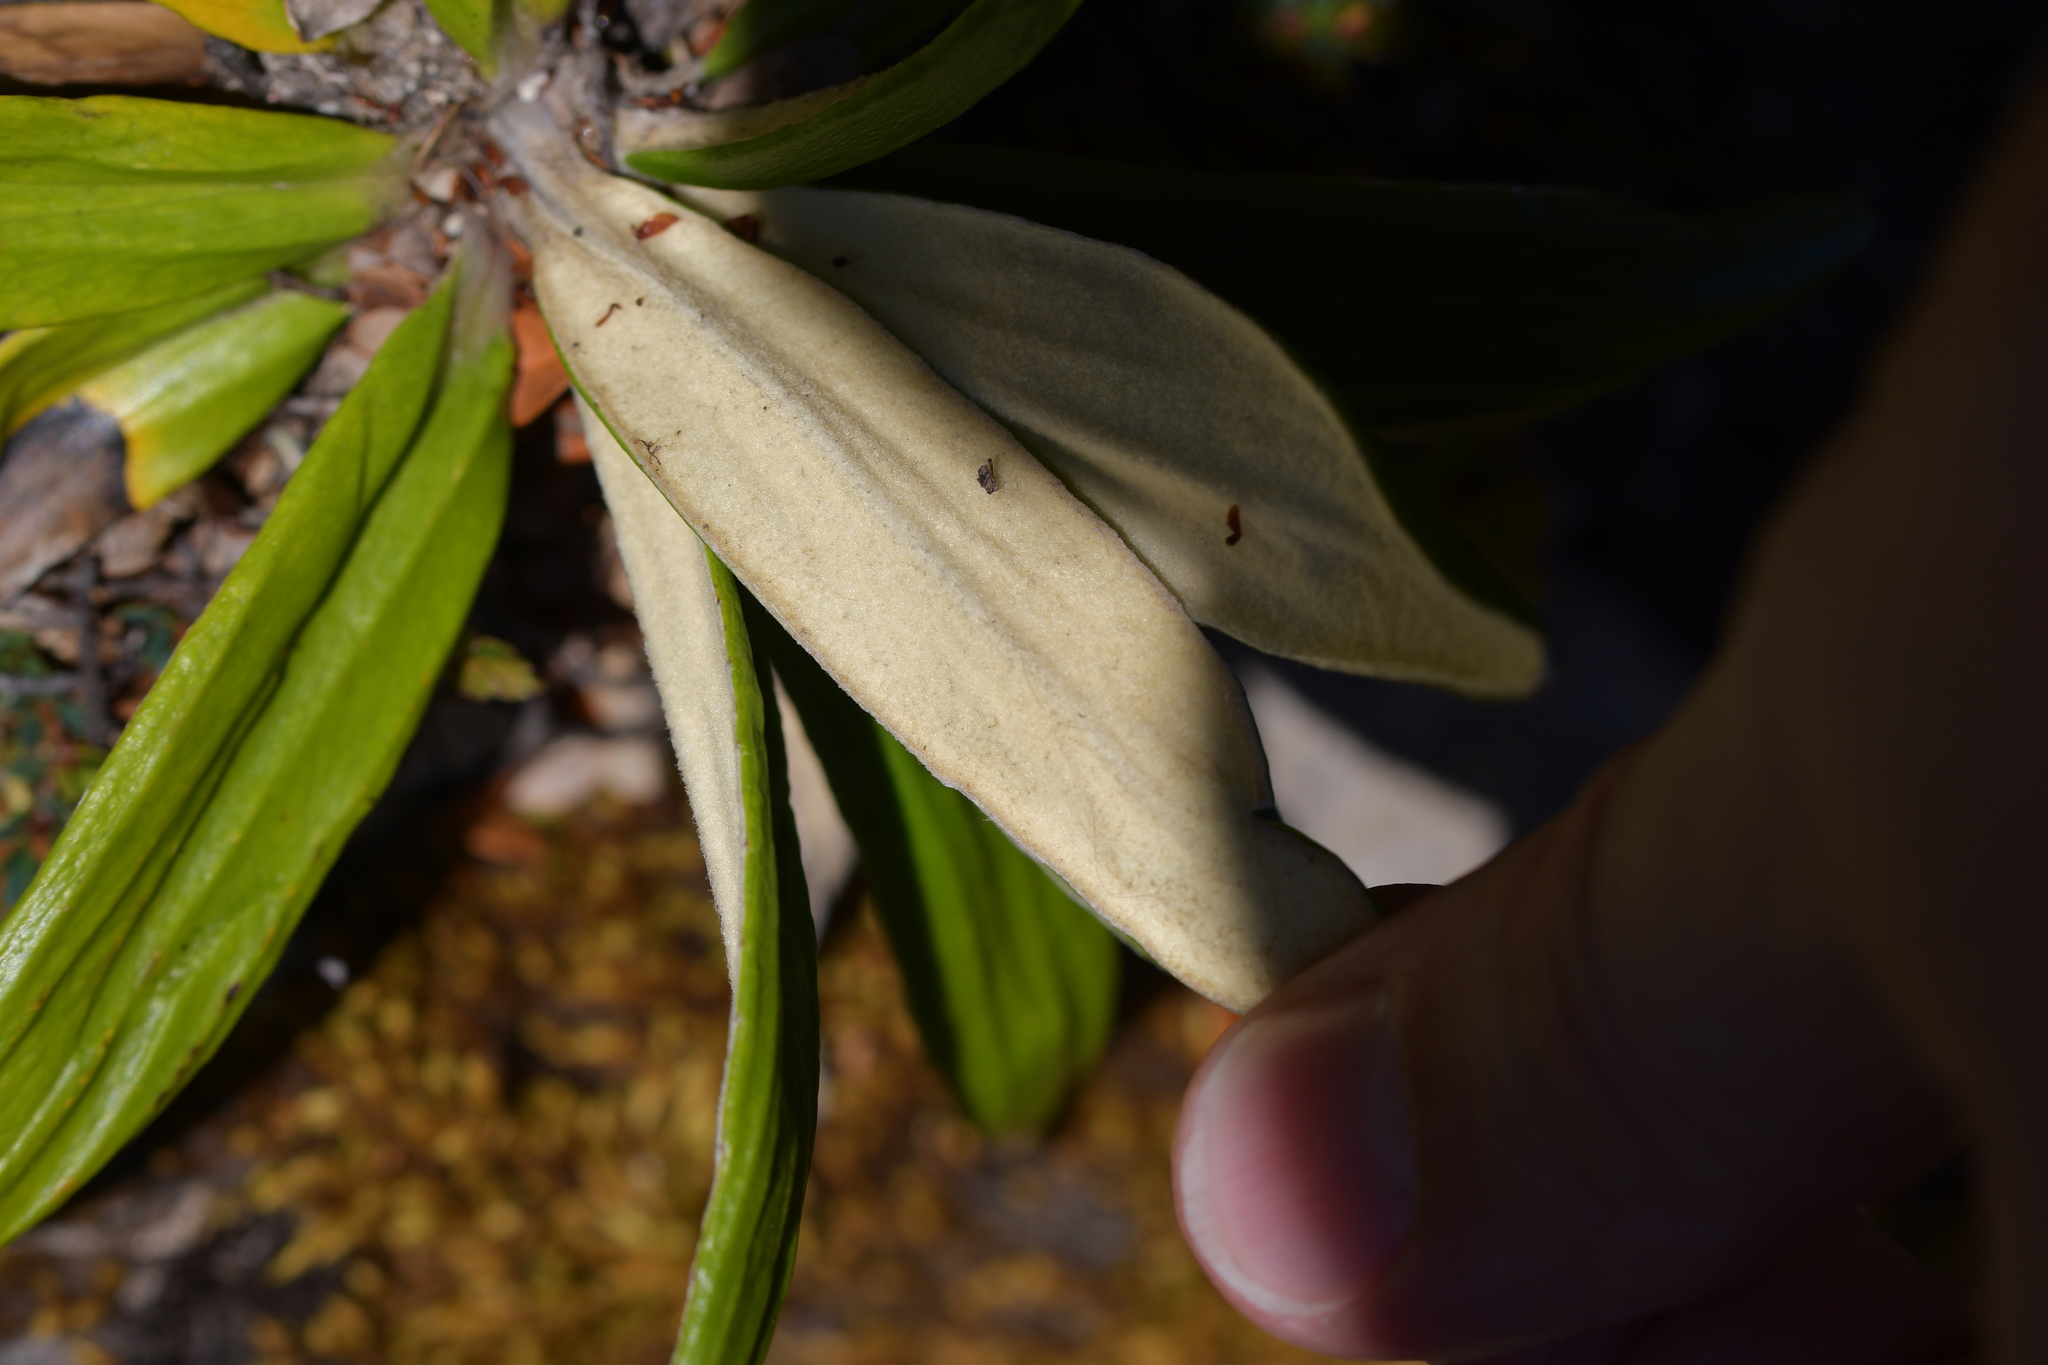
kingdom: Plantae
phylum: Tracheophyta
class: Magnoliopsida
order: Asterales
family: Asteraceae
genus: Celmisia
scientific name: Celmisia spectabilis
